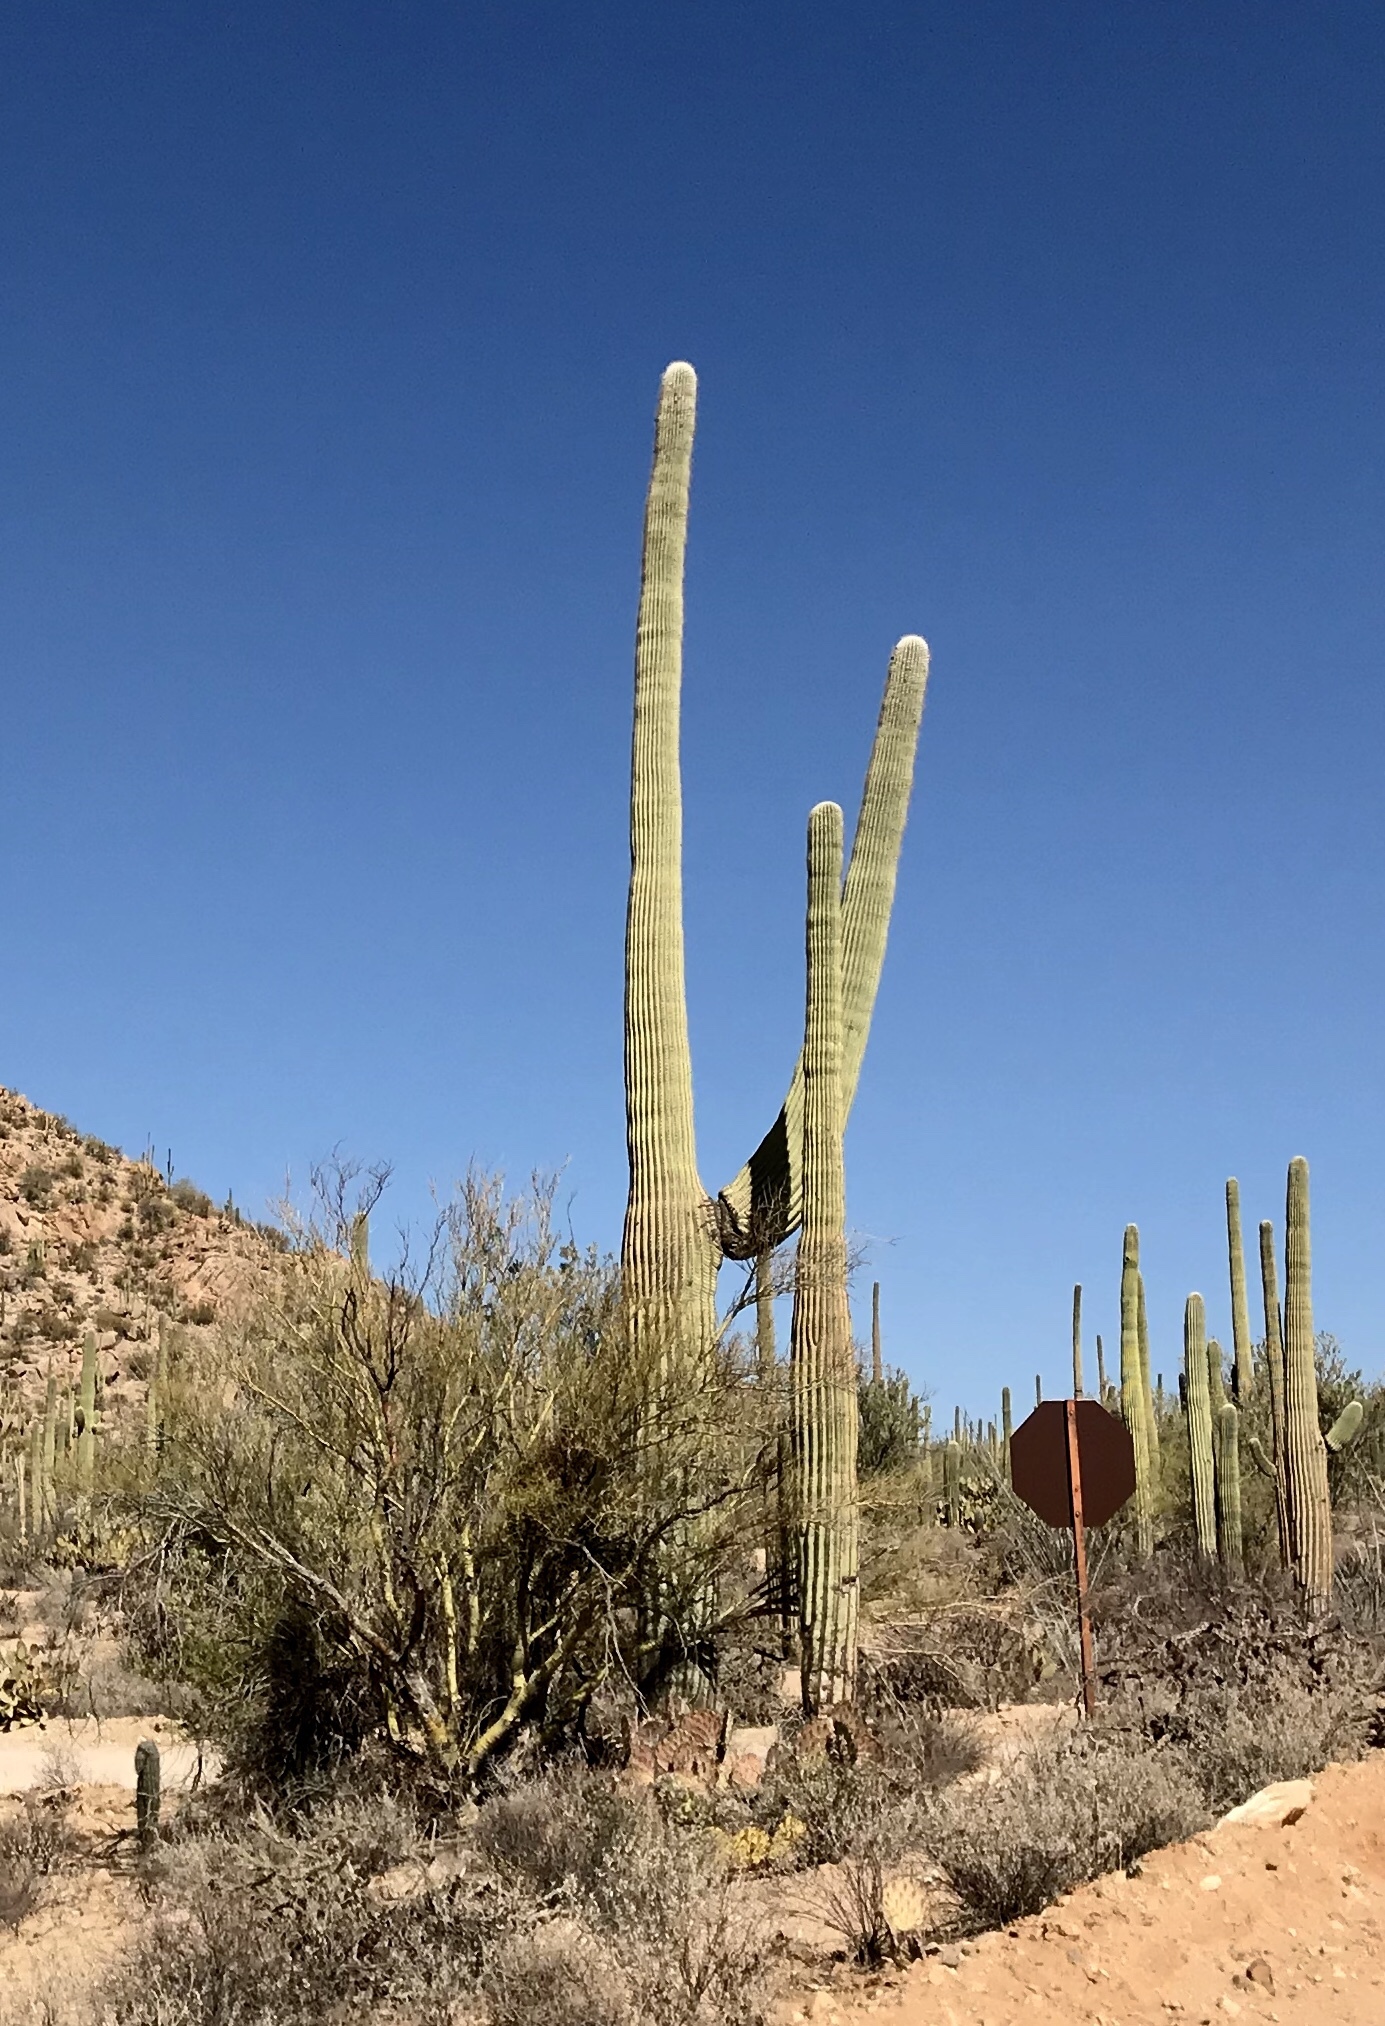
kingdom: Plantae
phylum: Tracheophyta
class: Magnoliopsida
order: Caryophyllales
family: Cactaceae
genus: Carnegiea
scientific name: Carnegiea gigantea
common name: Saguaro
